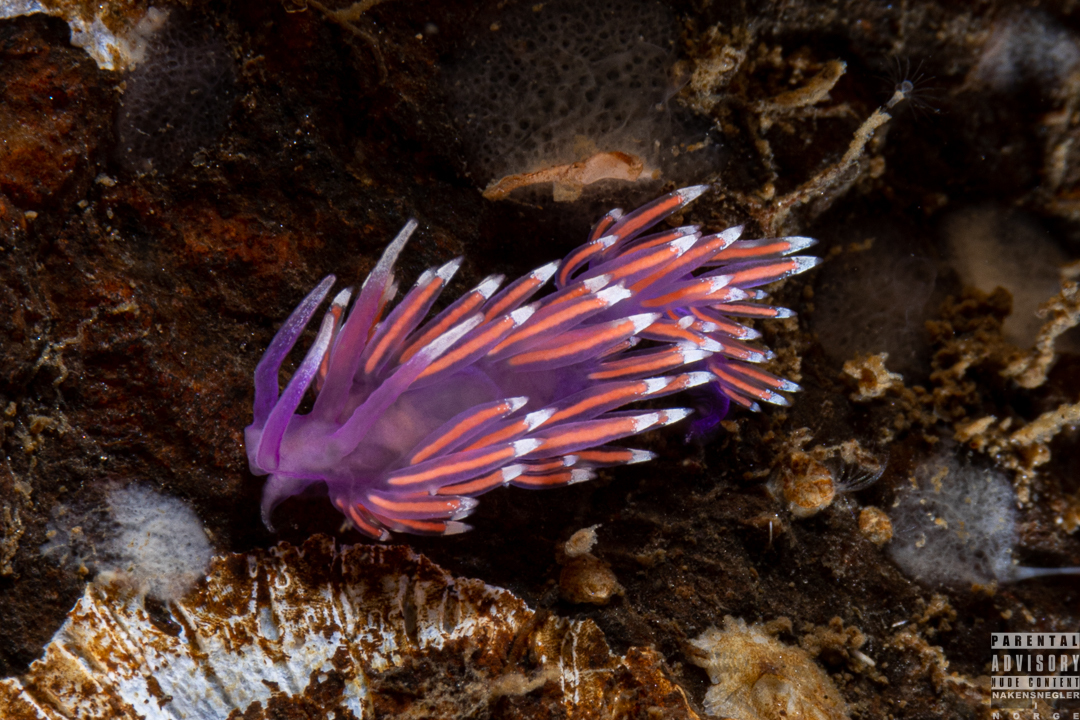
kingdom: Animalia
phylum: Mollusca
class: Gastropoda
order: Nudibranchia
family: Flabellinidae
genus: Edmundsella
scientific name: Edmundsella pedata
